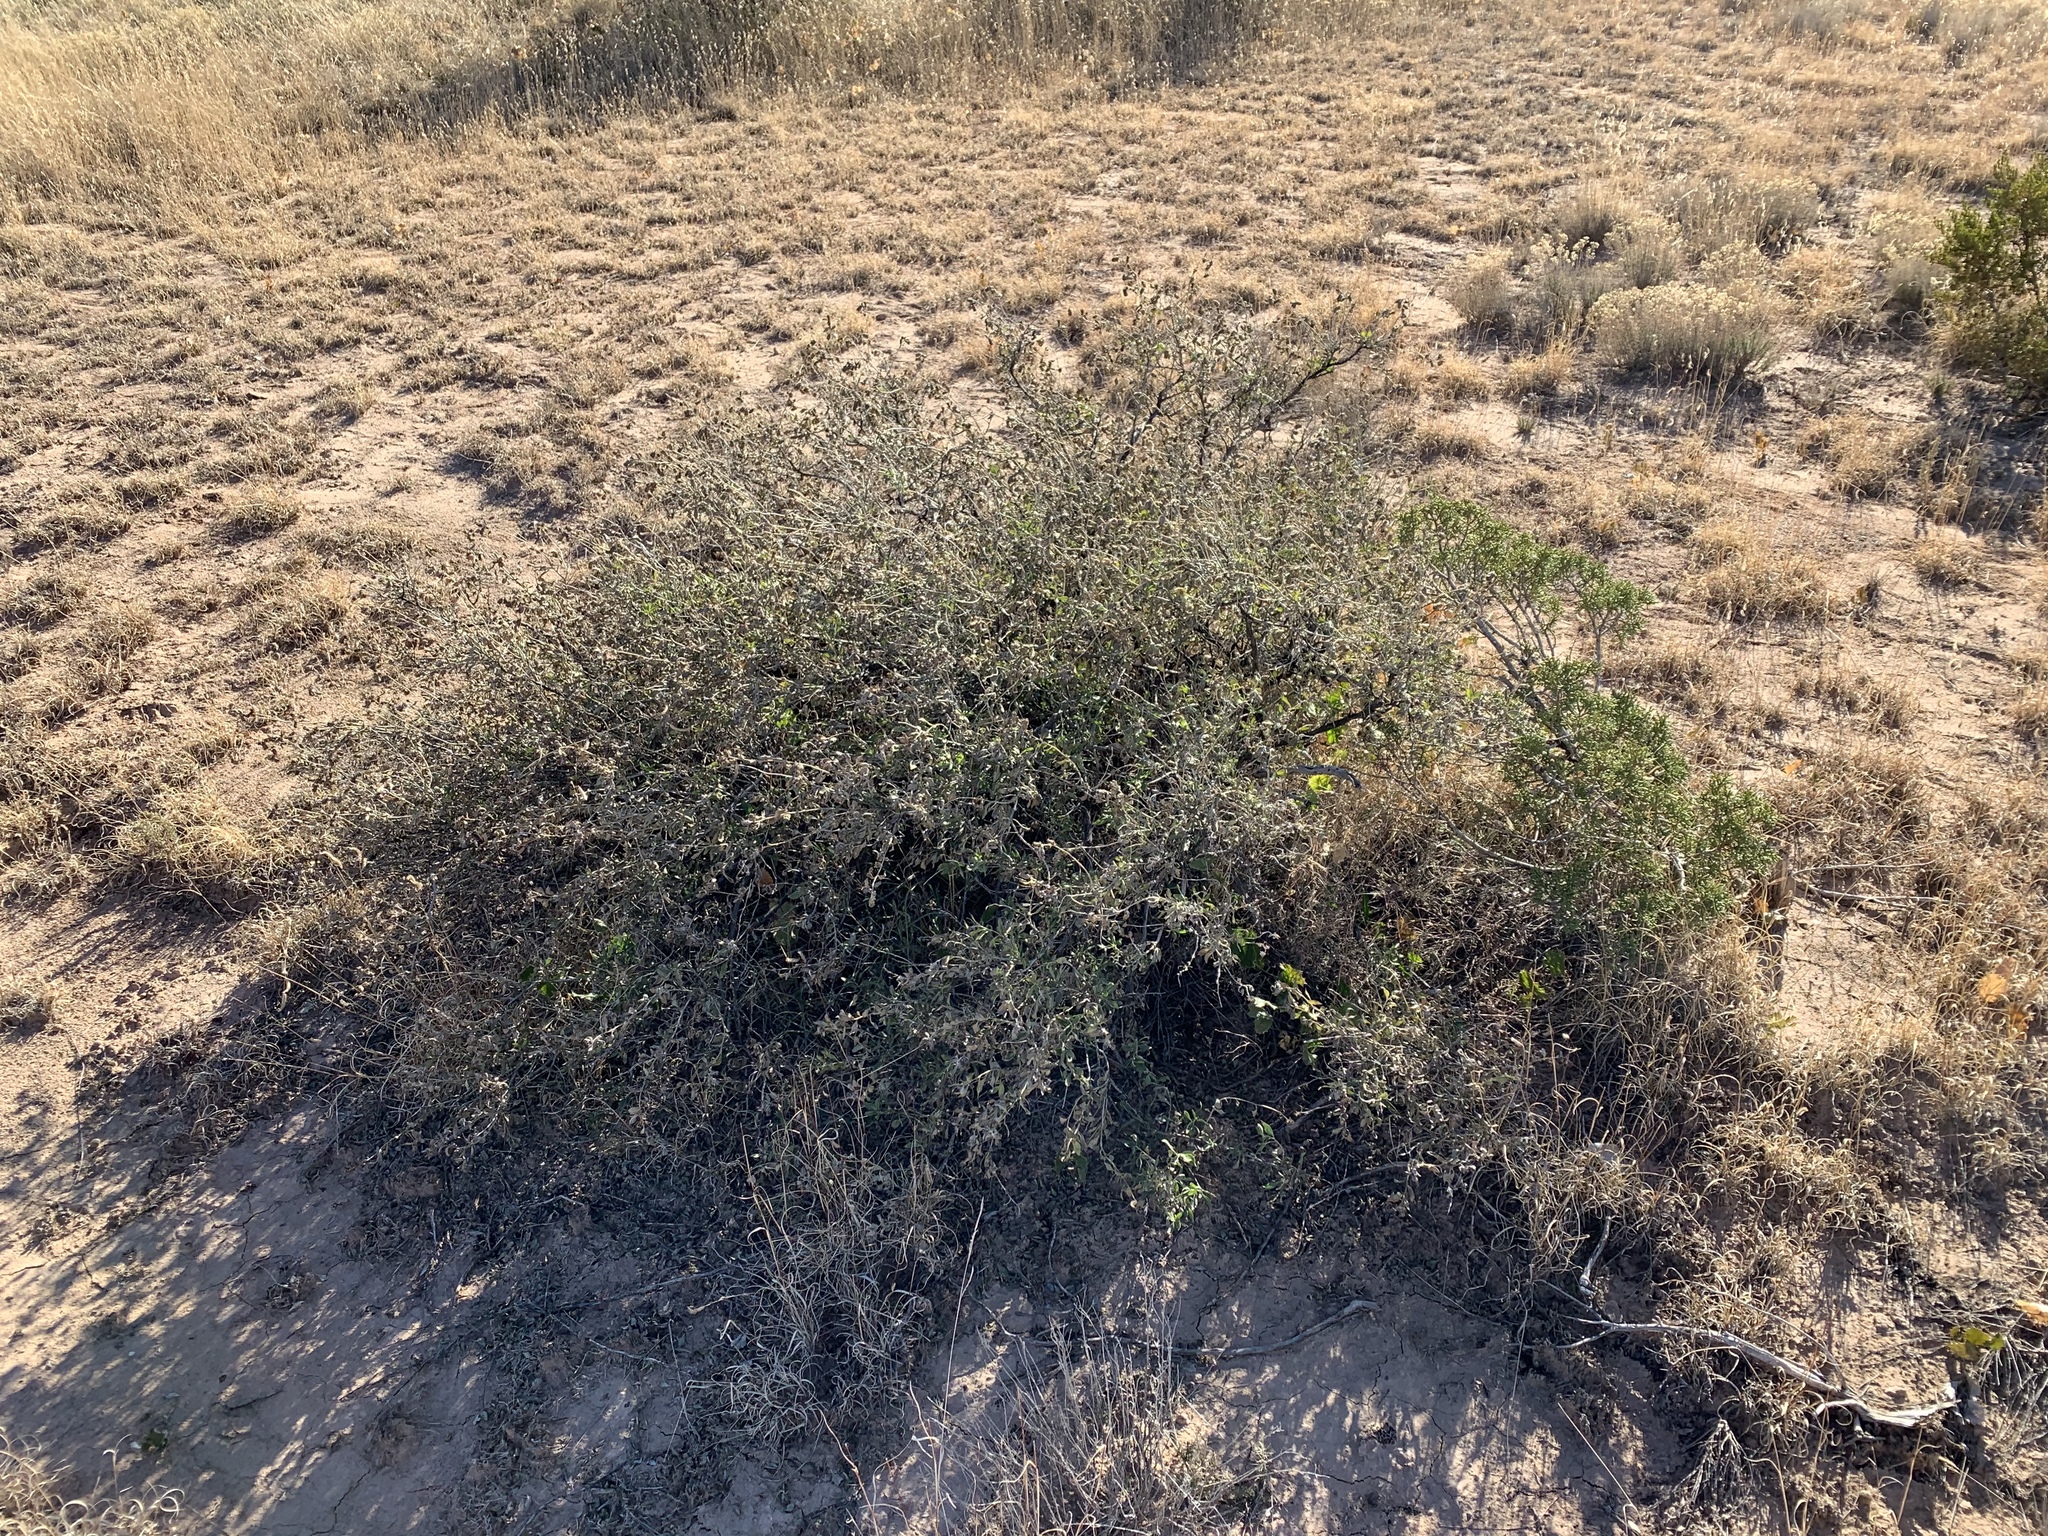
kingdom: Plantae
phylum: Tracheophyta
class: Magnoliopsida
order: Asterales
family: Asteraceae
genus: Flourensia
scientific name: Flourensia cernua
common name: Varnishbush
